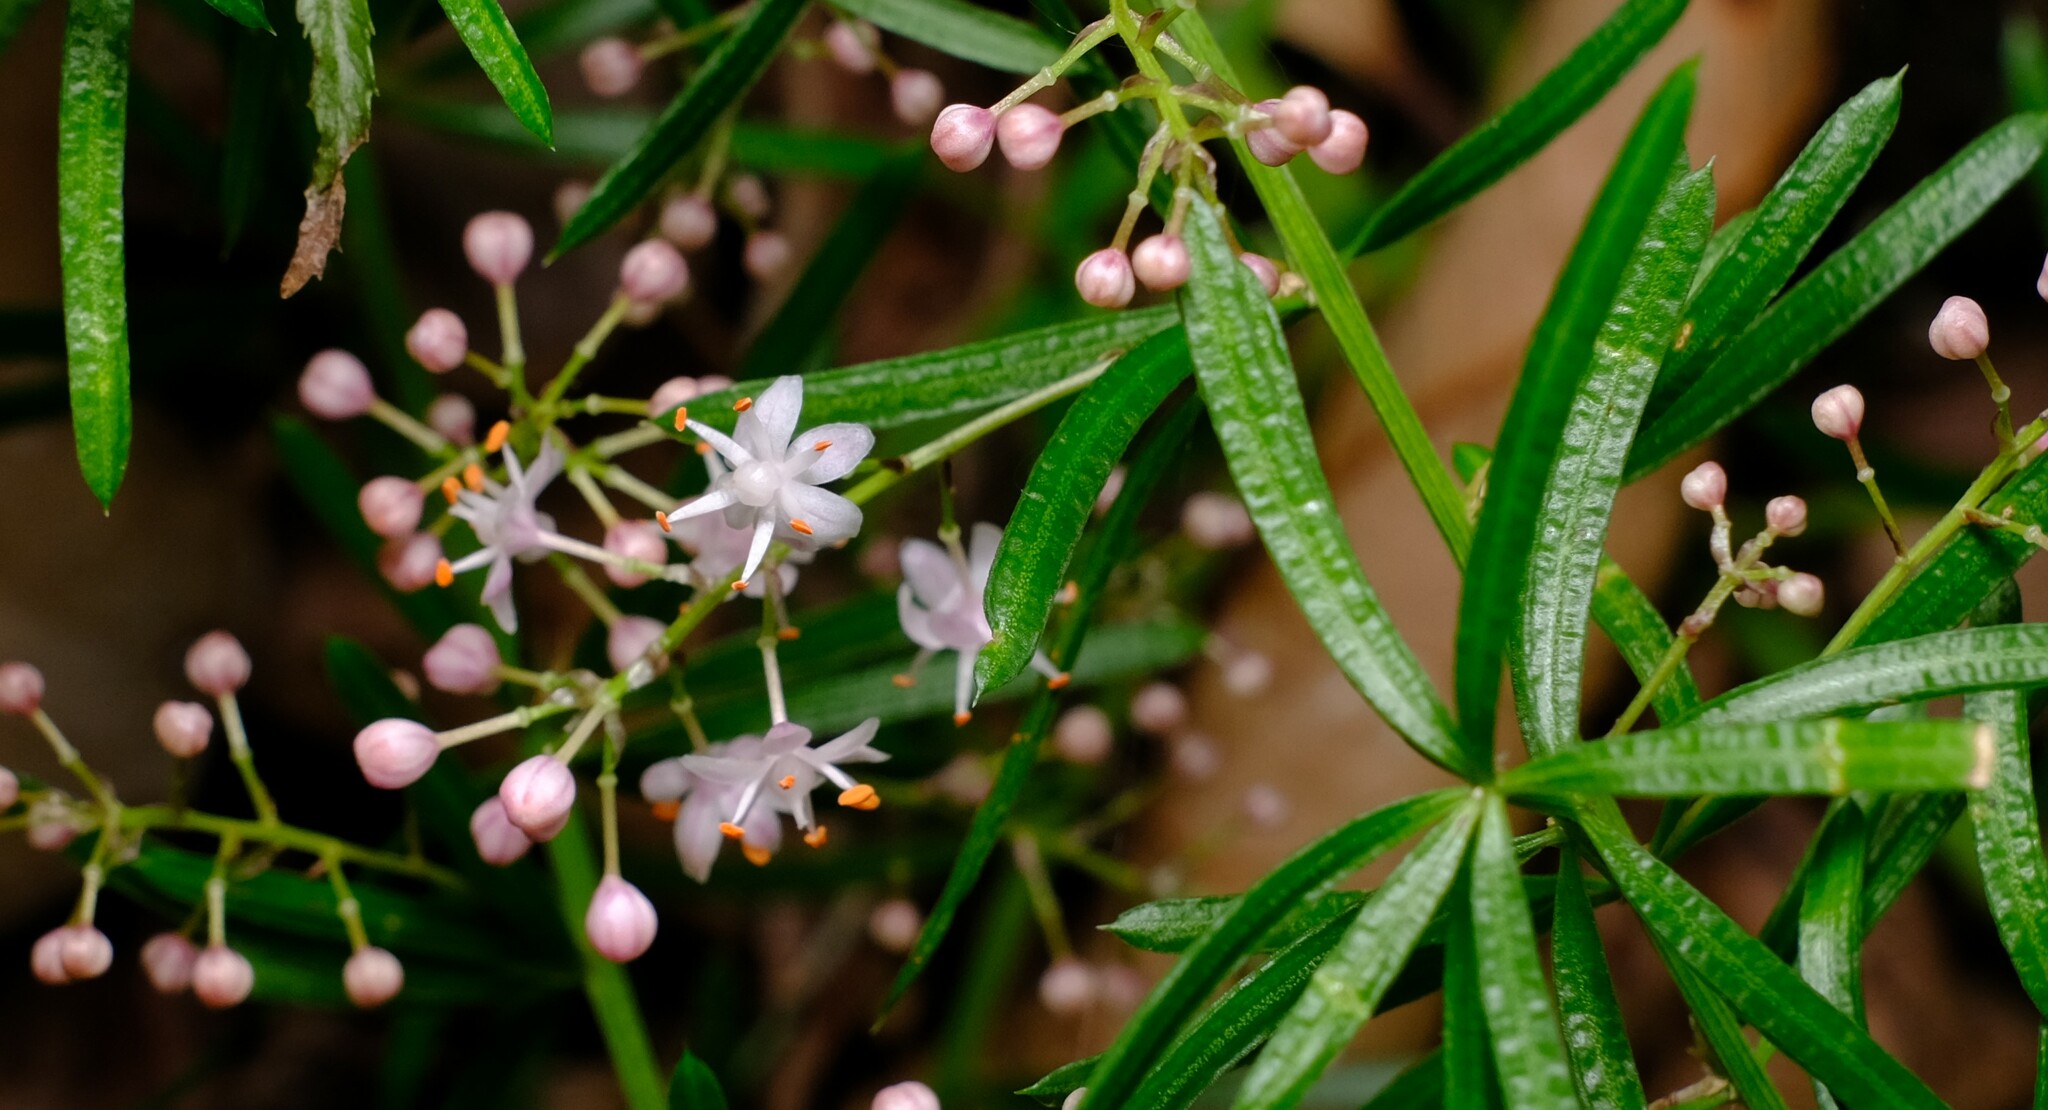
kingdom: Plantae
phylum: Tracheophyta
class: Liliopsida
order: Asparagales
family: Asparagaceae
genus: Asparagus
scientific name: Asparagus aethiopicus
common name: Sprenger's asparagus fern
